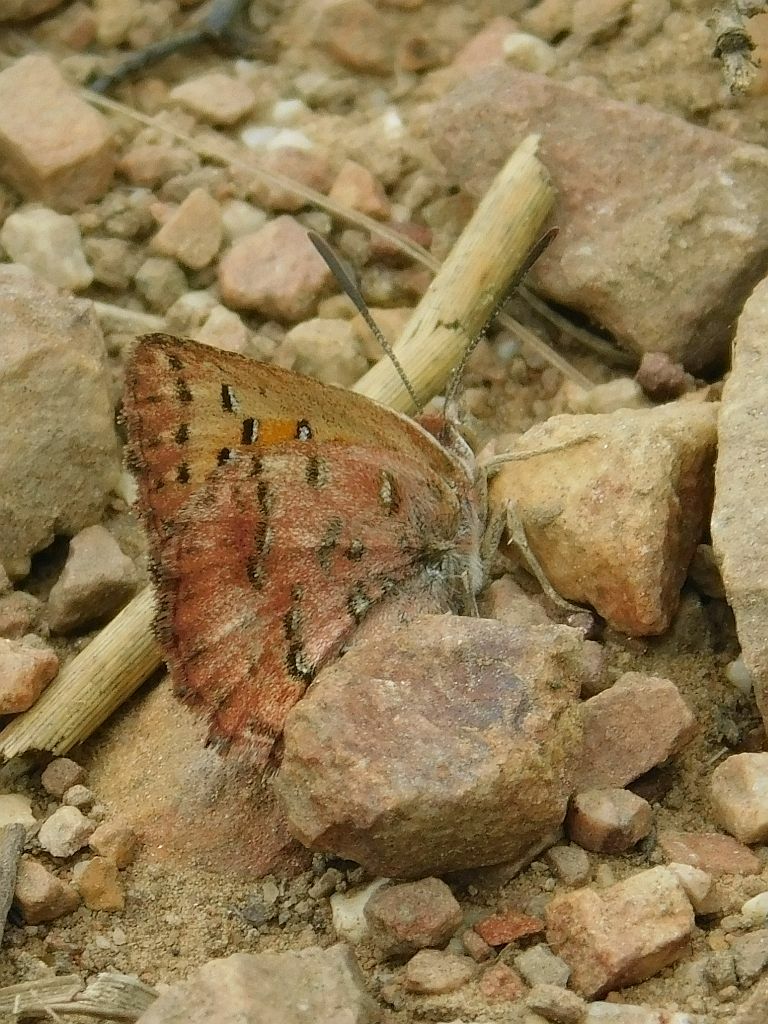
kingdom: Animalia
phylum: Arthropoda
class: Insecta
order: Lepidoptera
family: Lycaenidae
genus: Aloeides
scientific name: Aloeides pierus
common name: Dull copper
